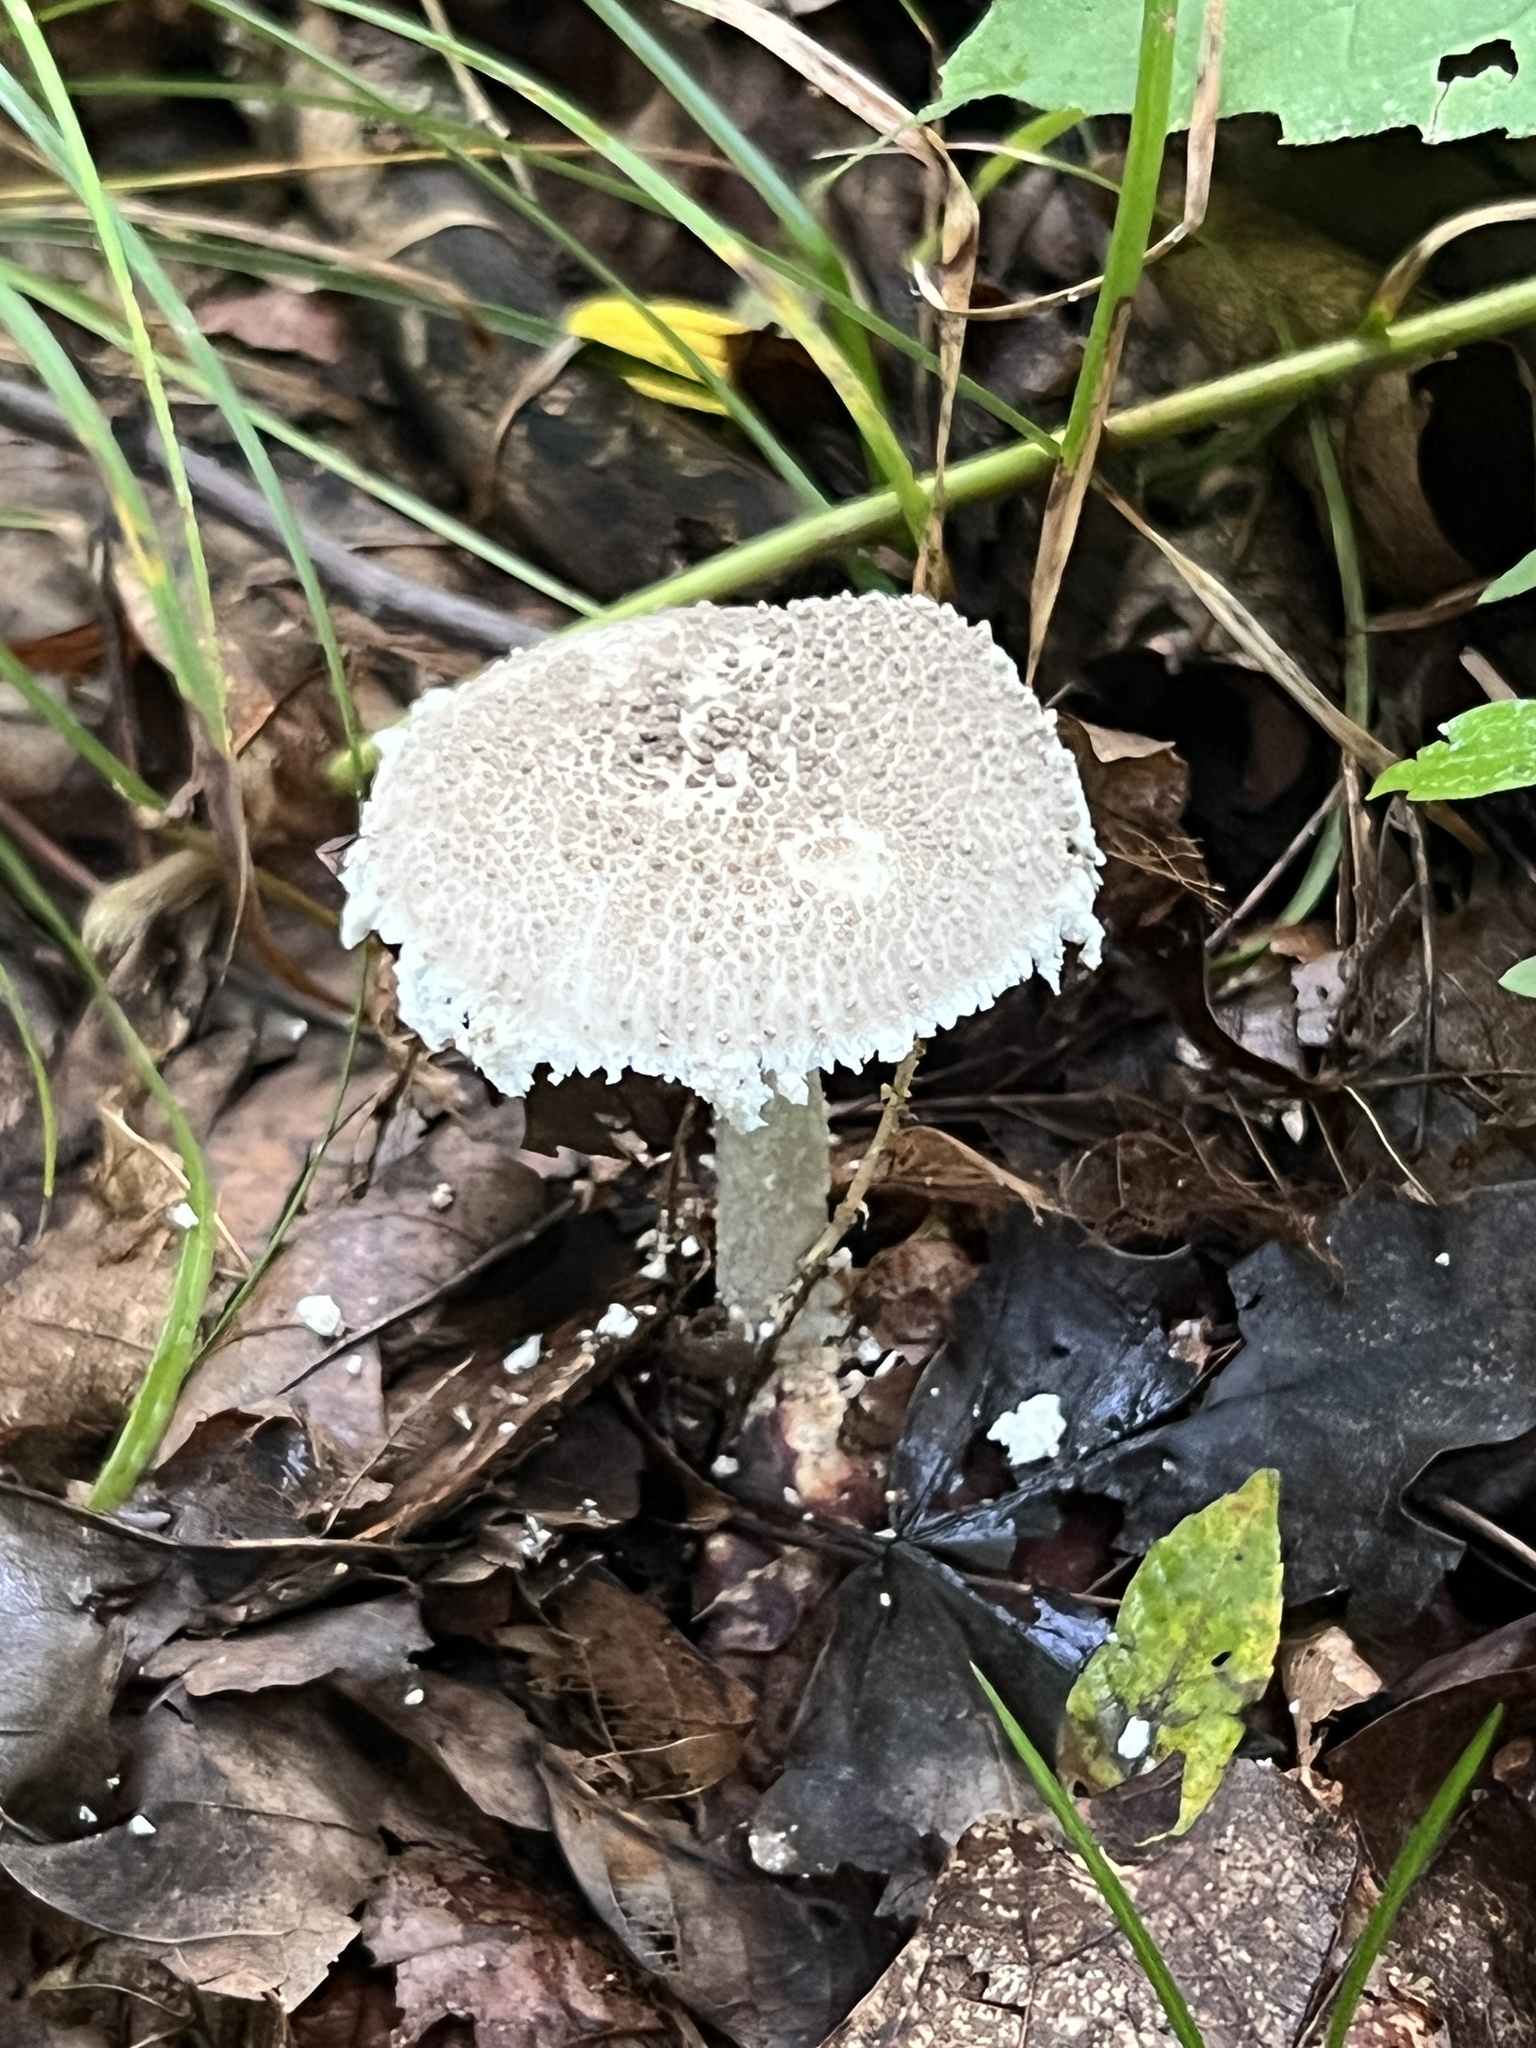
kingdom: Fungi
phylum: Basidiomycota
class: Agaricomycetes
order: Agaricales
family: Amanitaceae
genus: Amanita
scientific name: Amanita onusta
